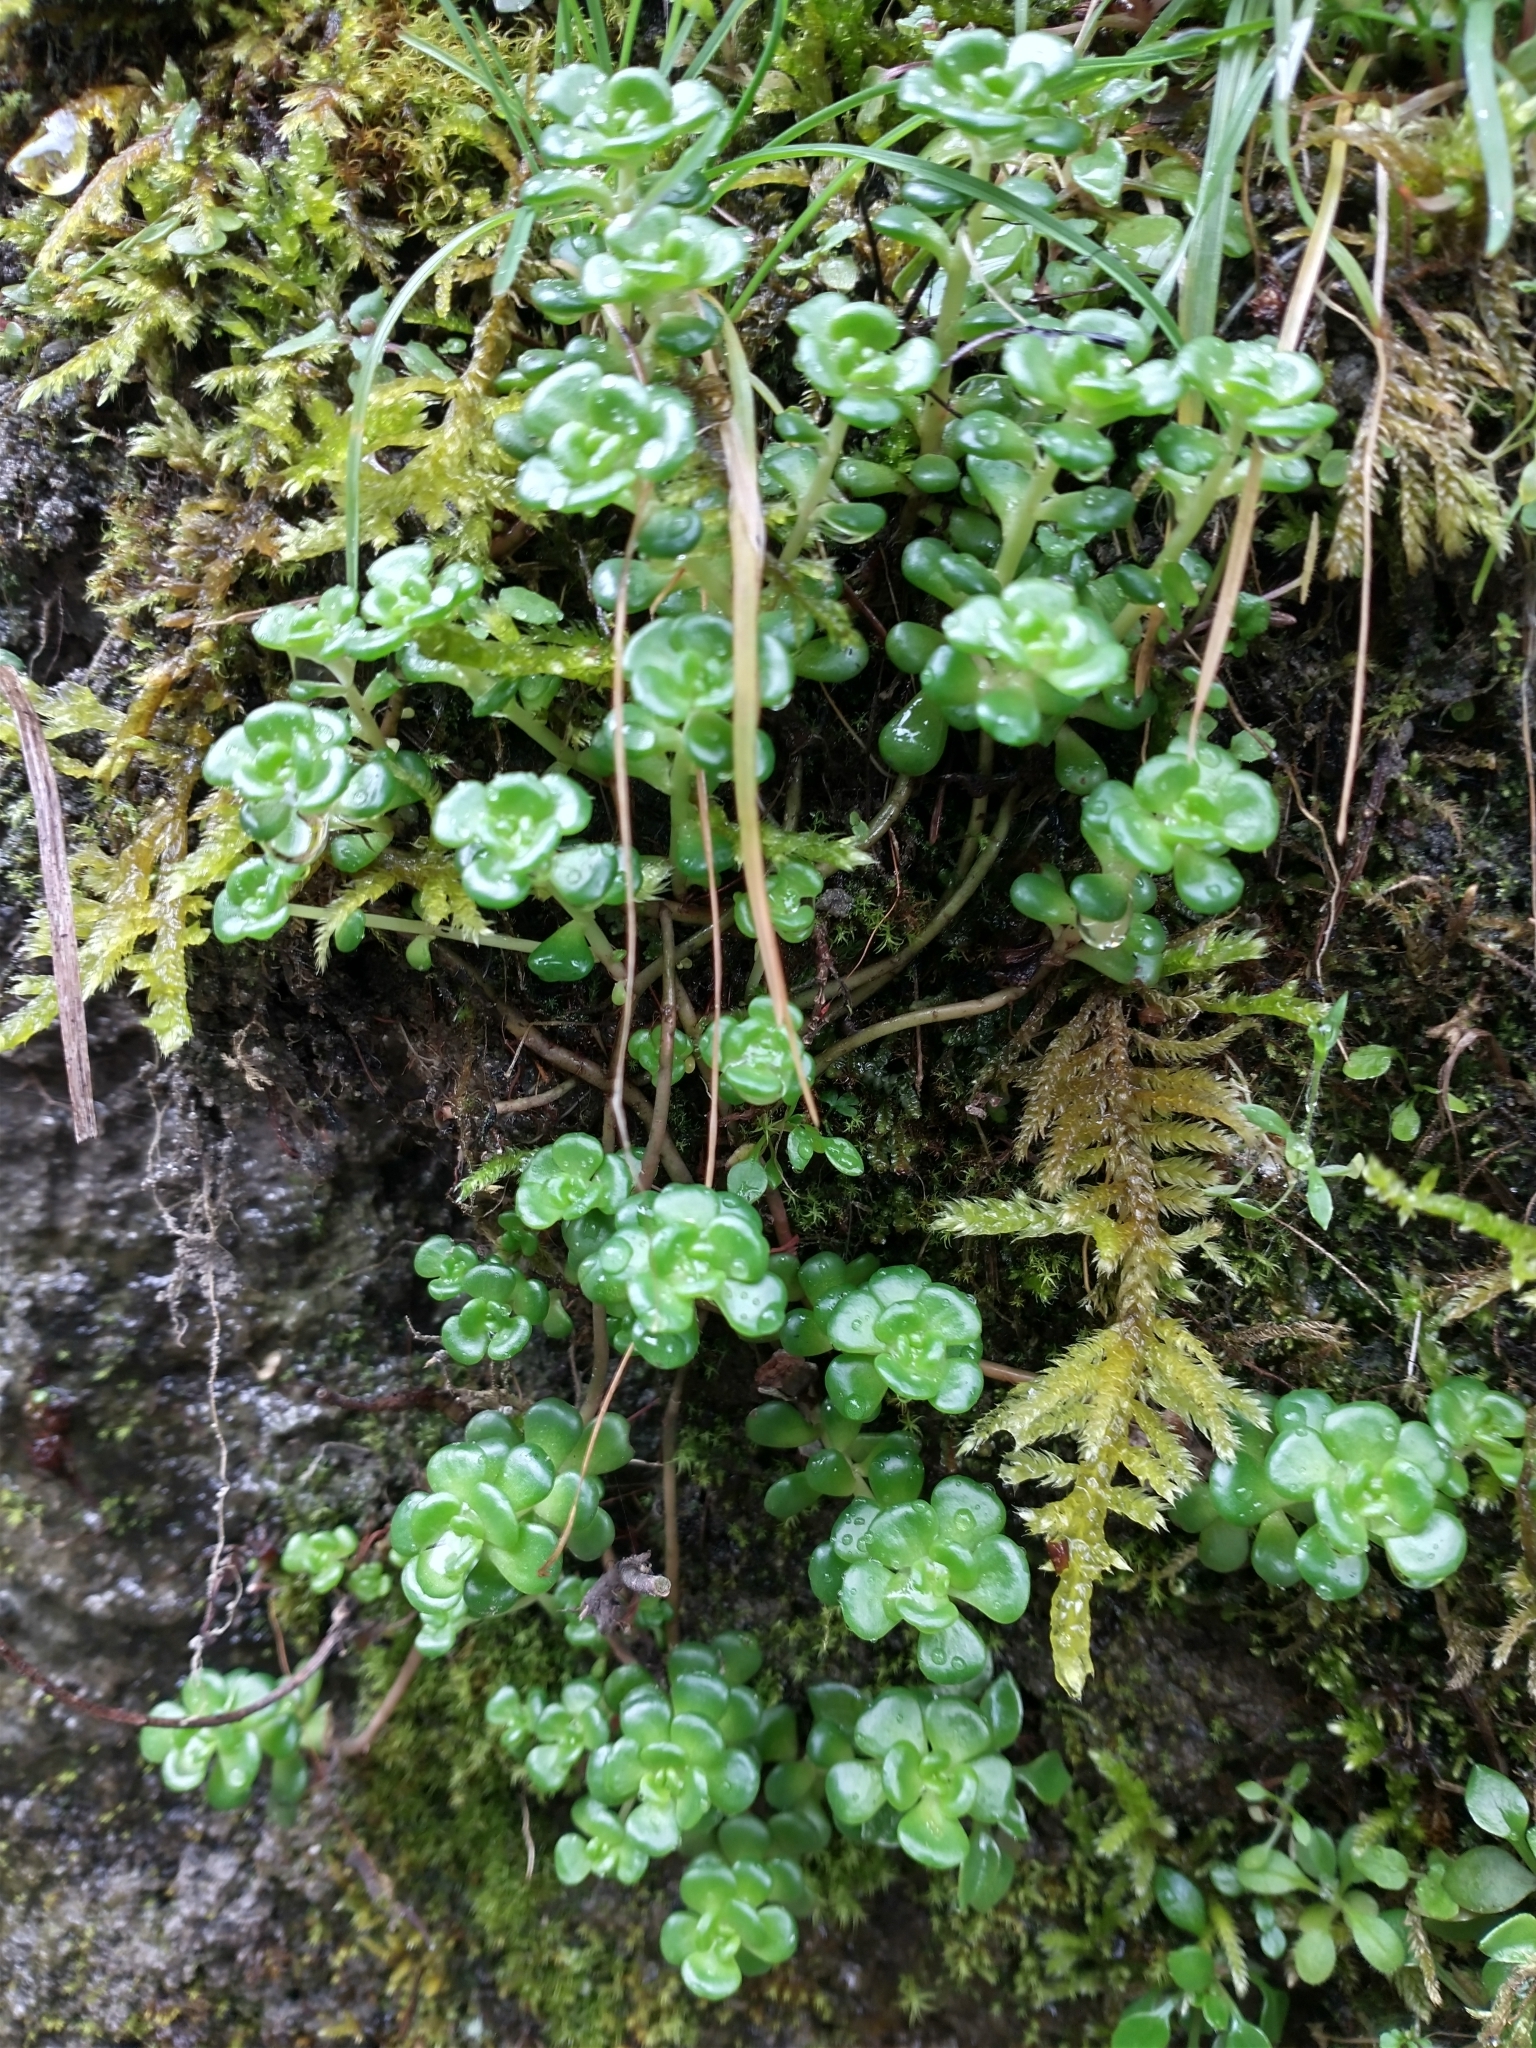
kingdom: Plantae
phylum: Tracheophyta
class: Magnoliopsida
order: Saxifragales
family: Crassulaceae
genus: Sedum
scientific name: Sedum oreganum
